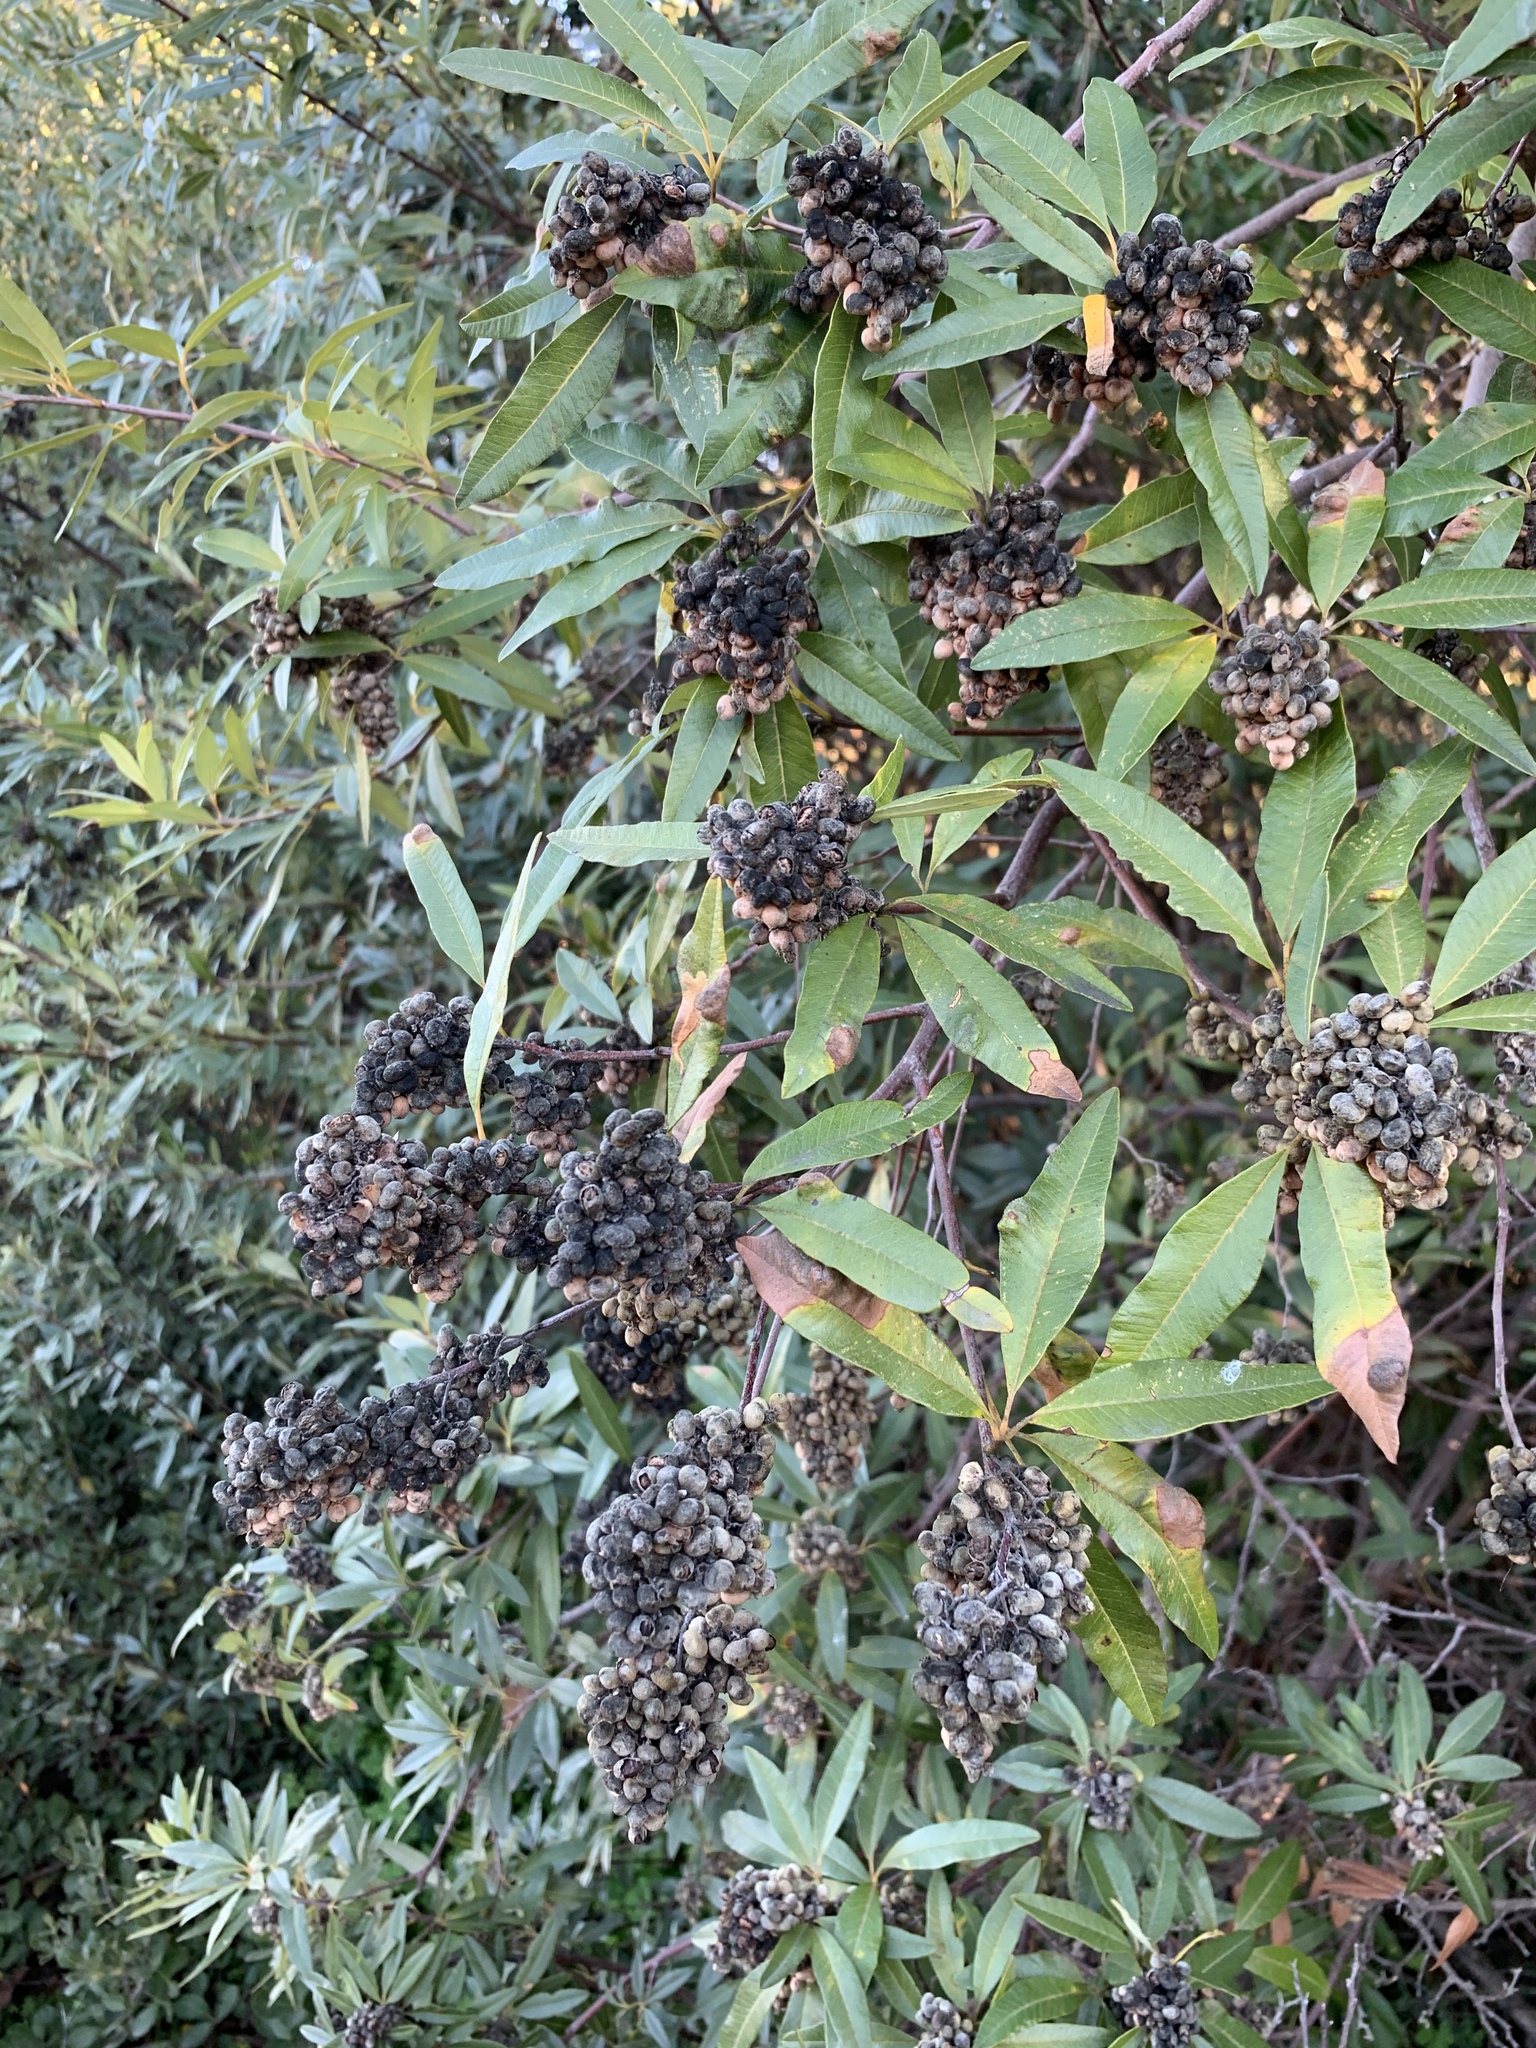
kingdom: Plantae
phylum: Tracheophyta
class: Magnoliopsida
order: Sapindales
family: Anacardiaceae
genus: Searsia
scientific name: Searsia angustifolia
